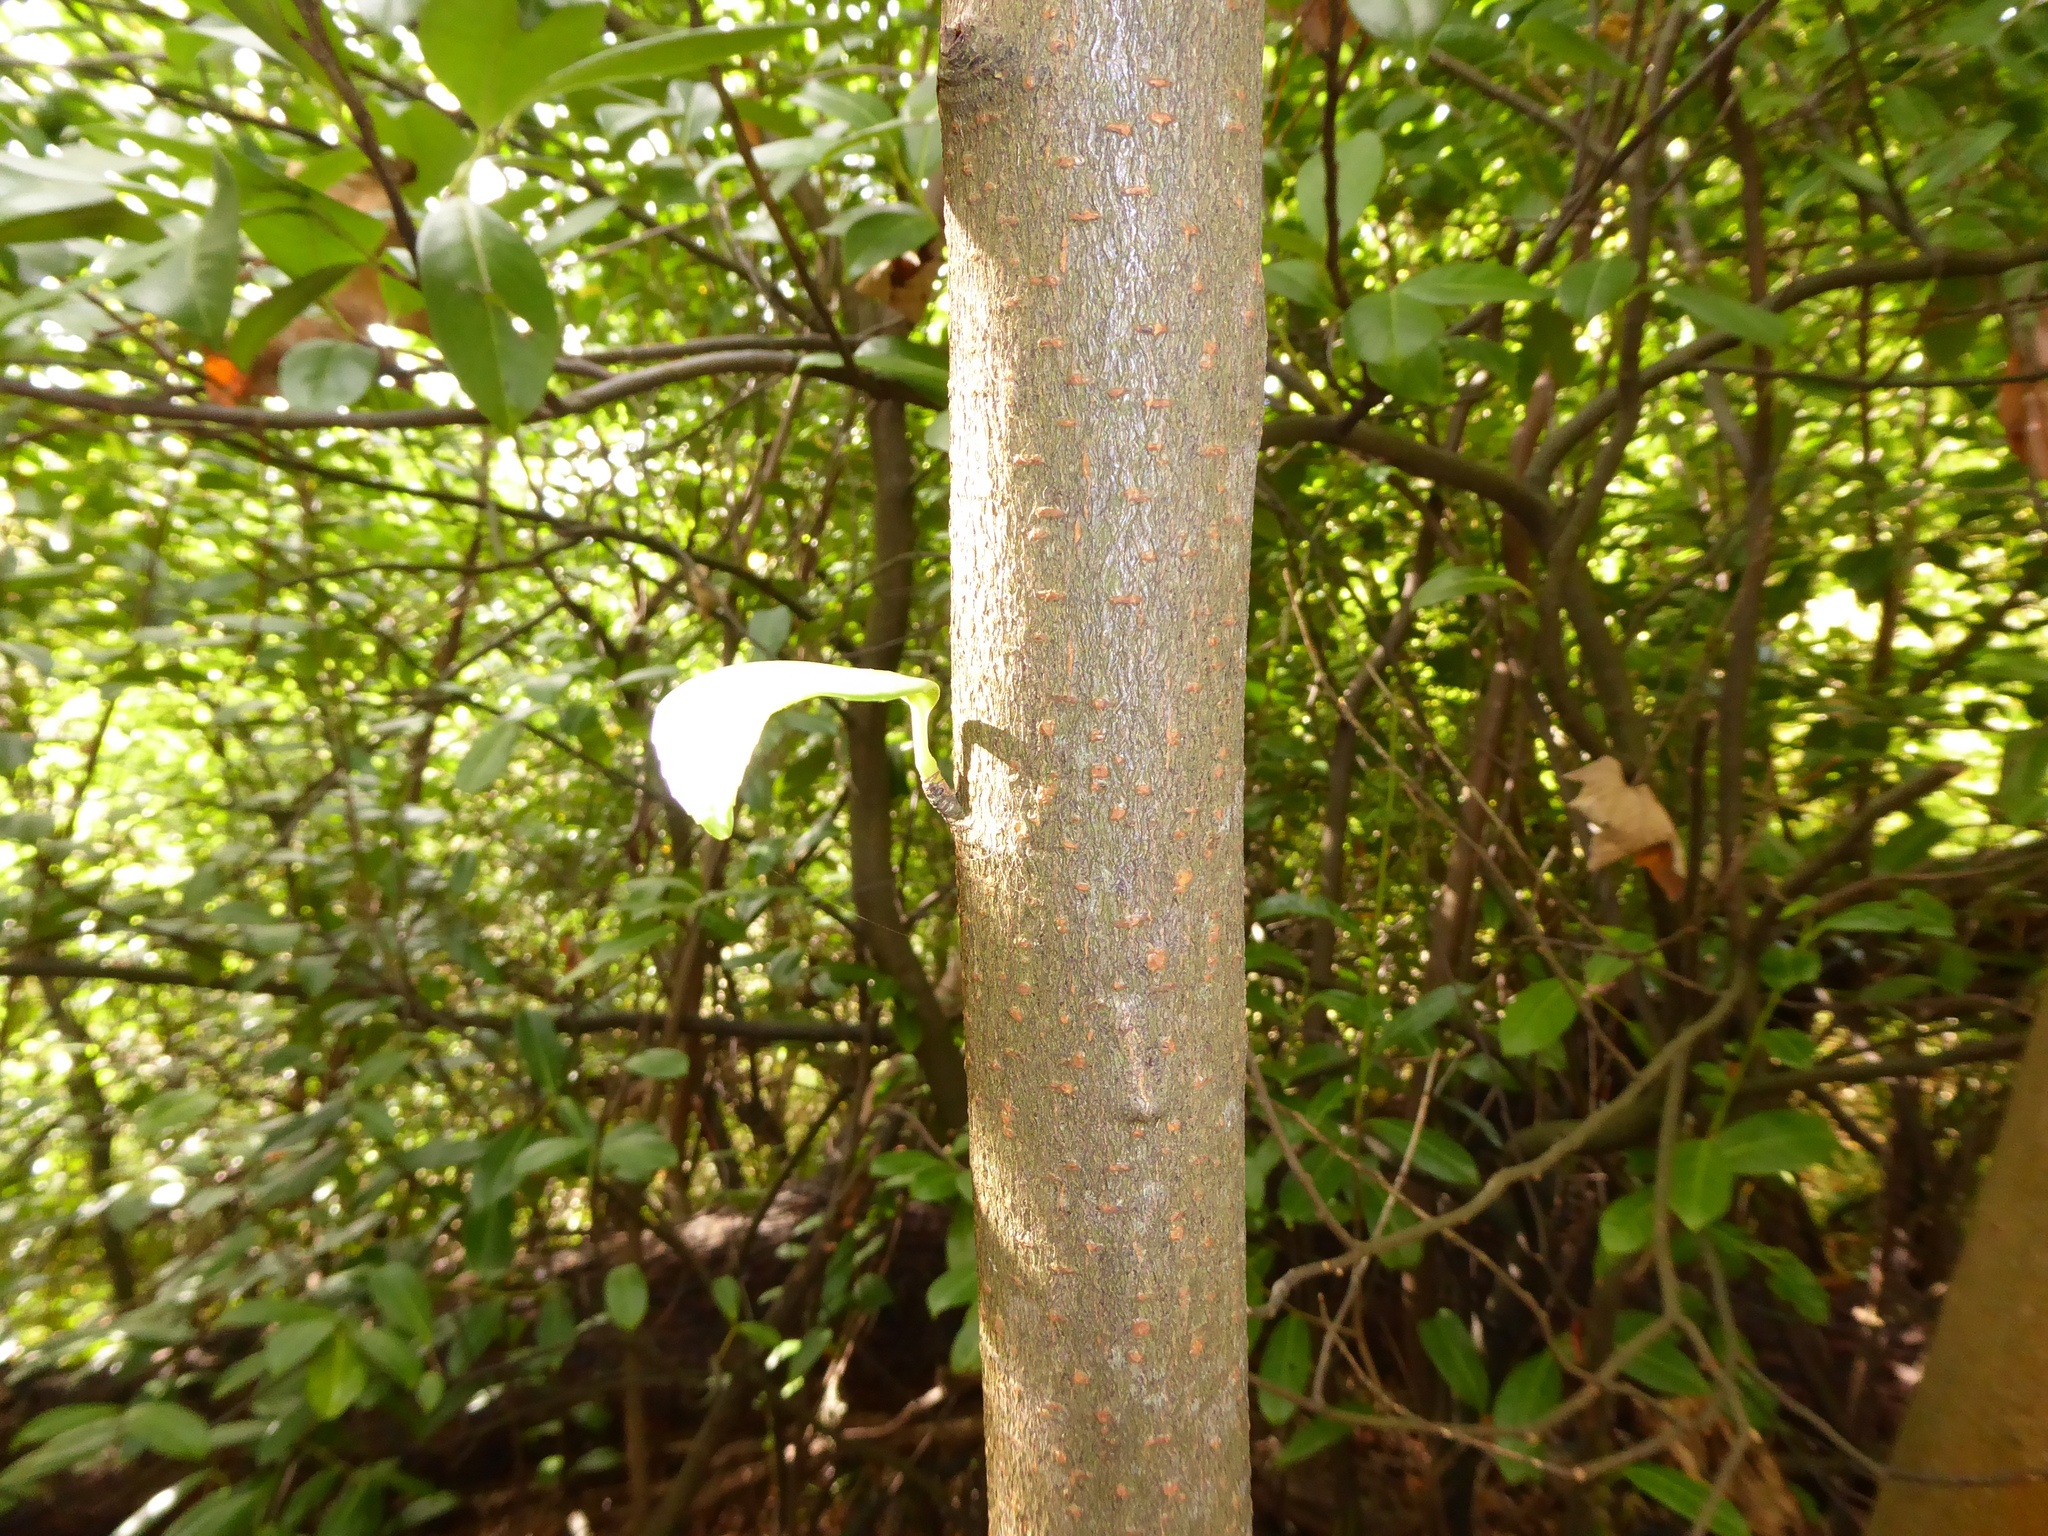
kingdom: Plantae
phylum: Tracheophyta
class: Magnoliopsida
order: Rosales
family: Rosaceae
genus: Prunus
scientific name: Prunus laurocerasus
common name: Cherry laurel
